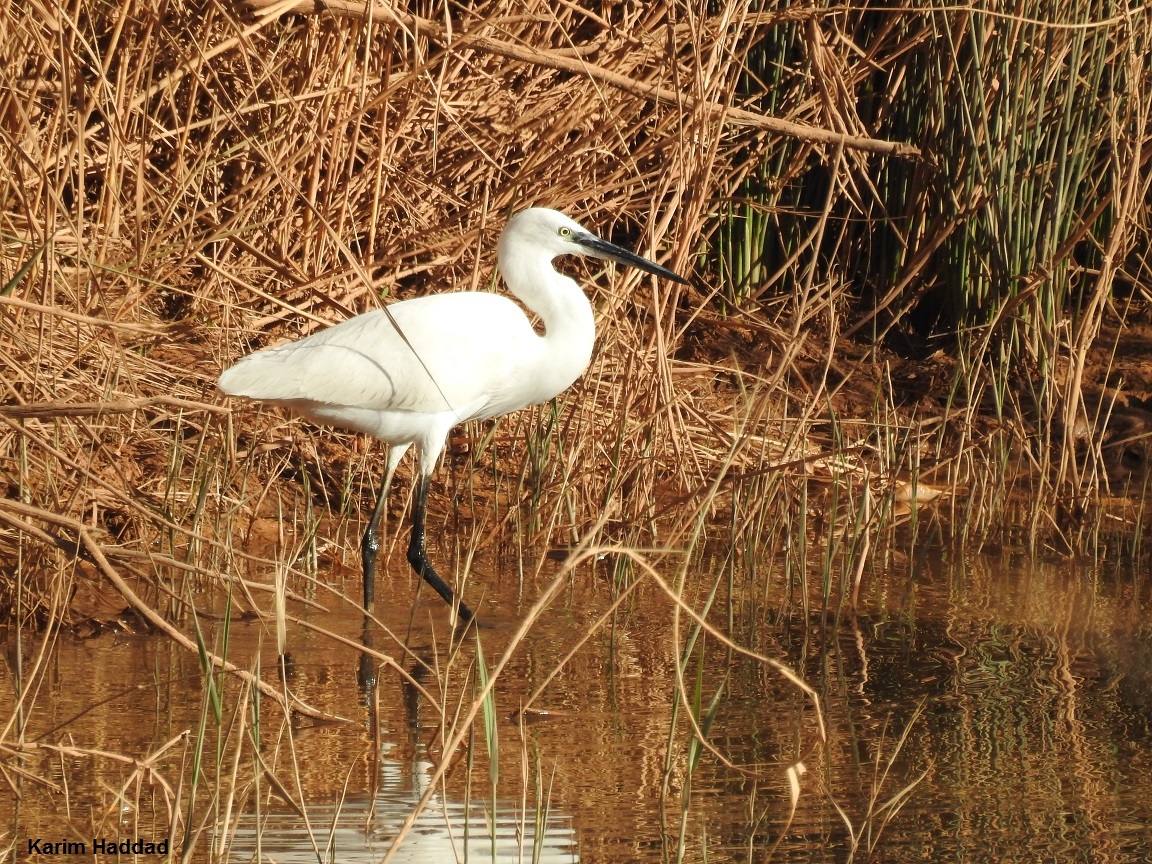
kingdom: Animalia
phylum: Chordata
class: Aves
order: Pelecaniformes
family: Ardeidae
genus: Egretta
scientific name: Egretta garzetta
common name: Little egret
